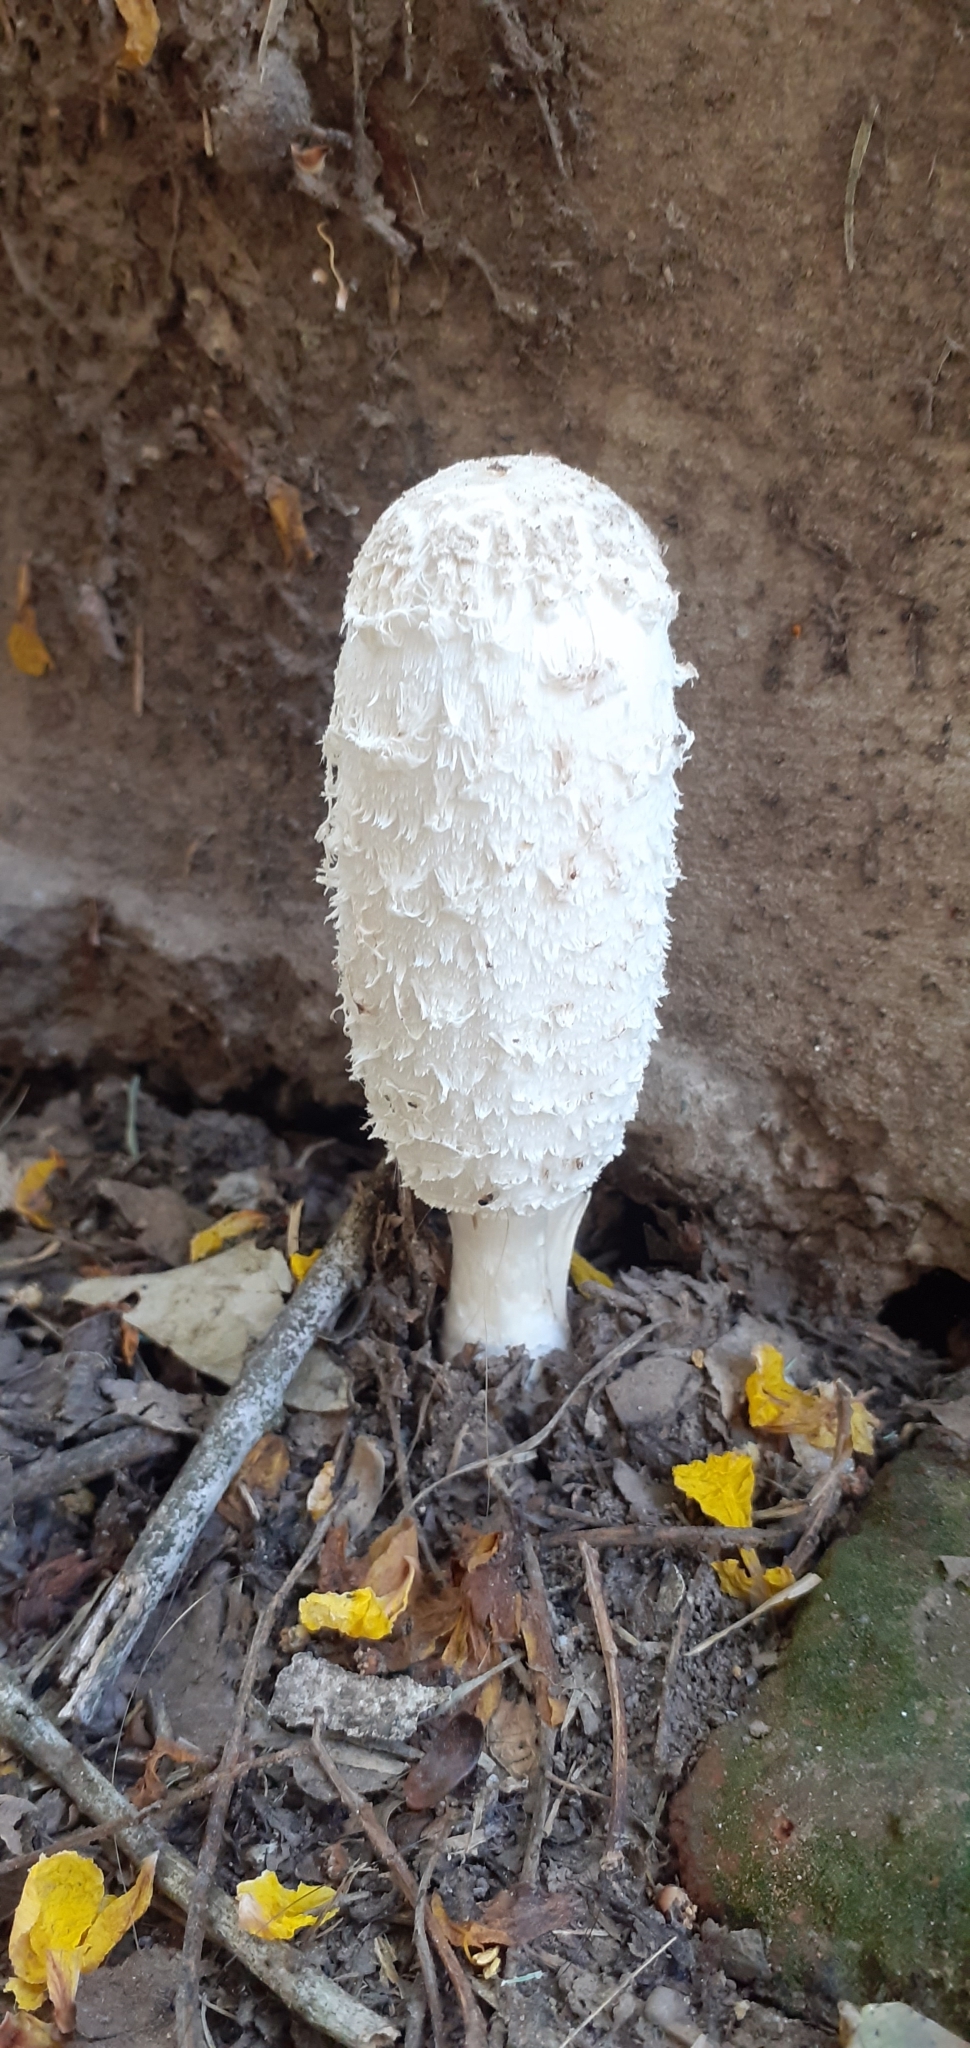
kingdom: Fungi
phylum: Basidiomycota
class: Agaricomycetes
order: Agaricales
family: Agaricaceae
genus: Coprinus
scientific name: Coprinus comatus
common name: Lawyer's wig
